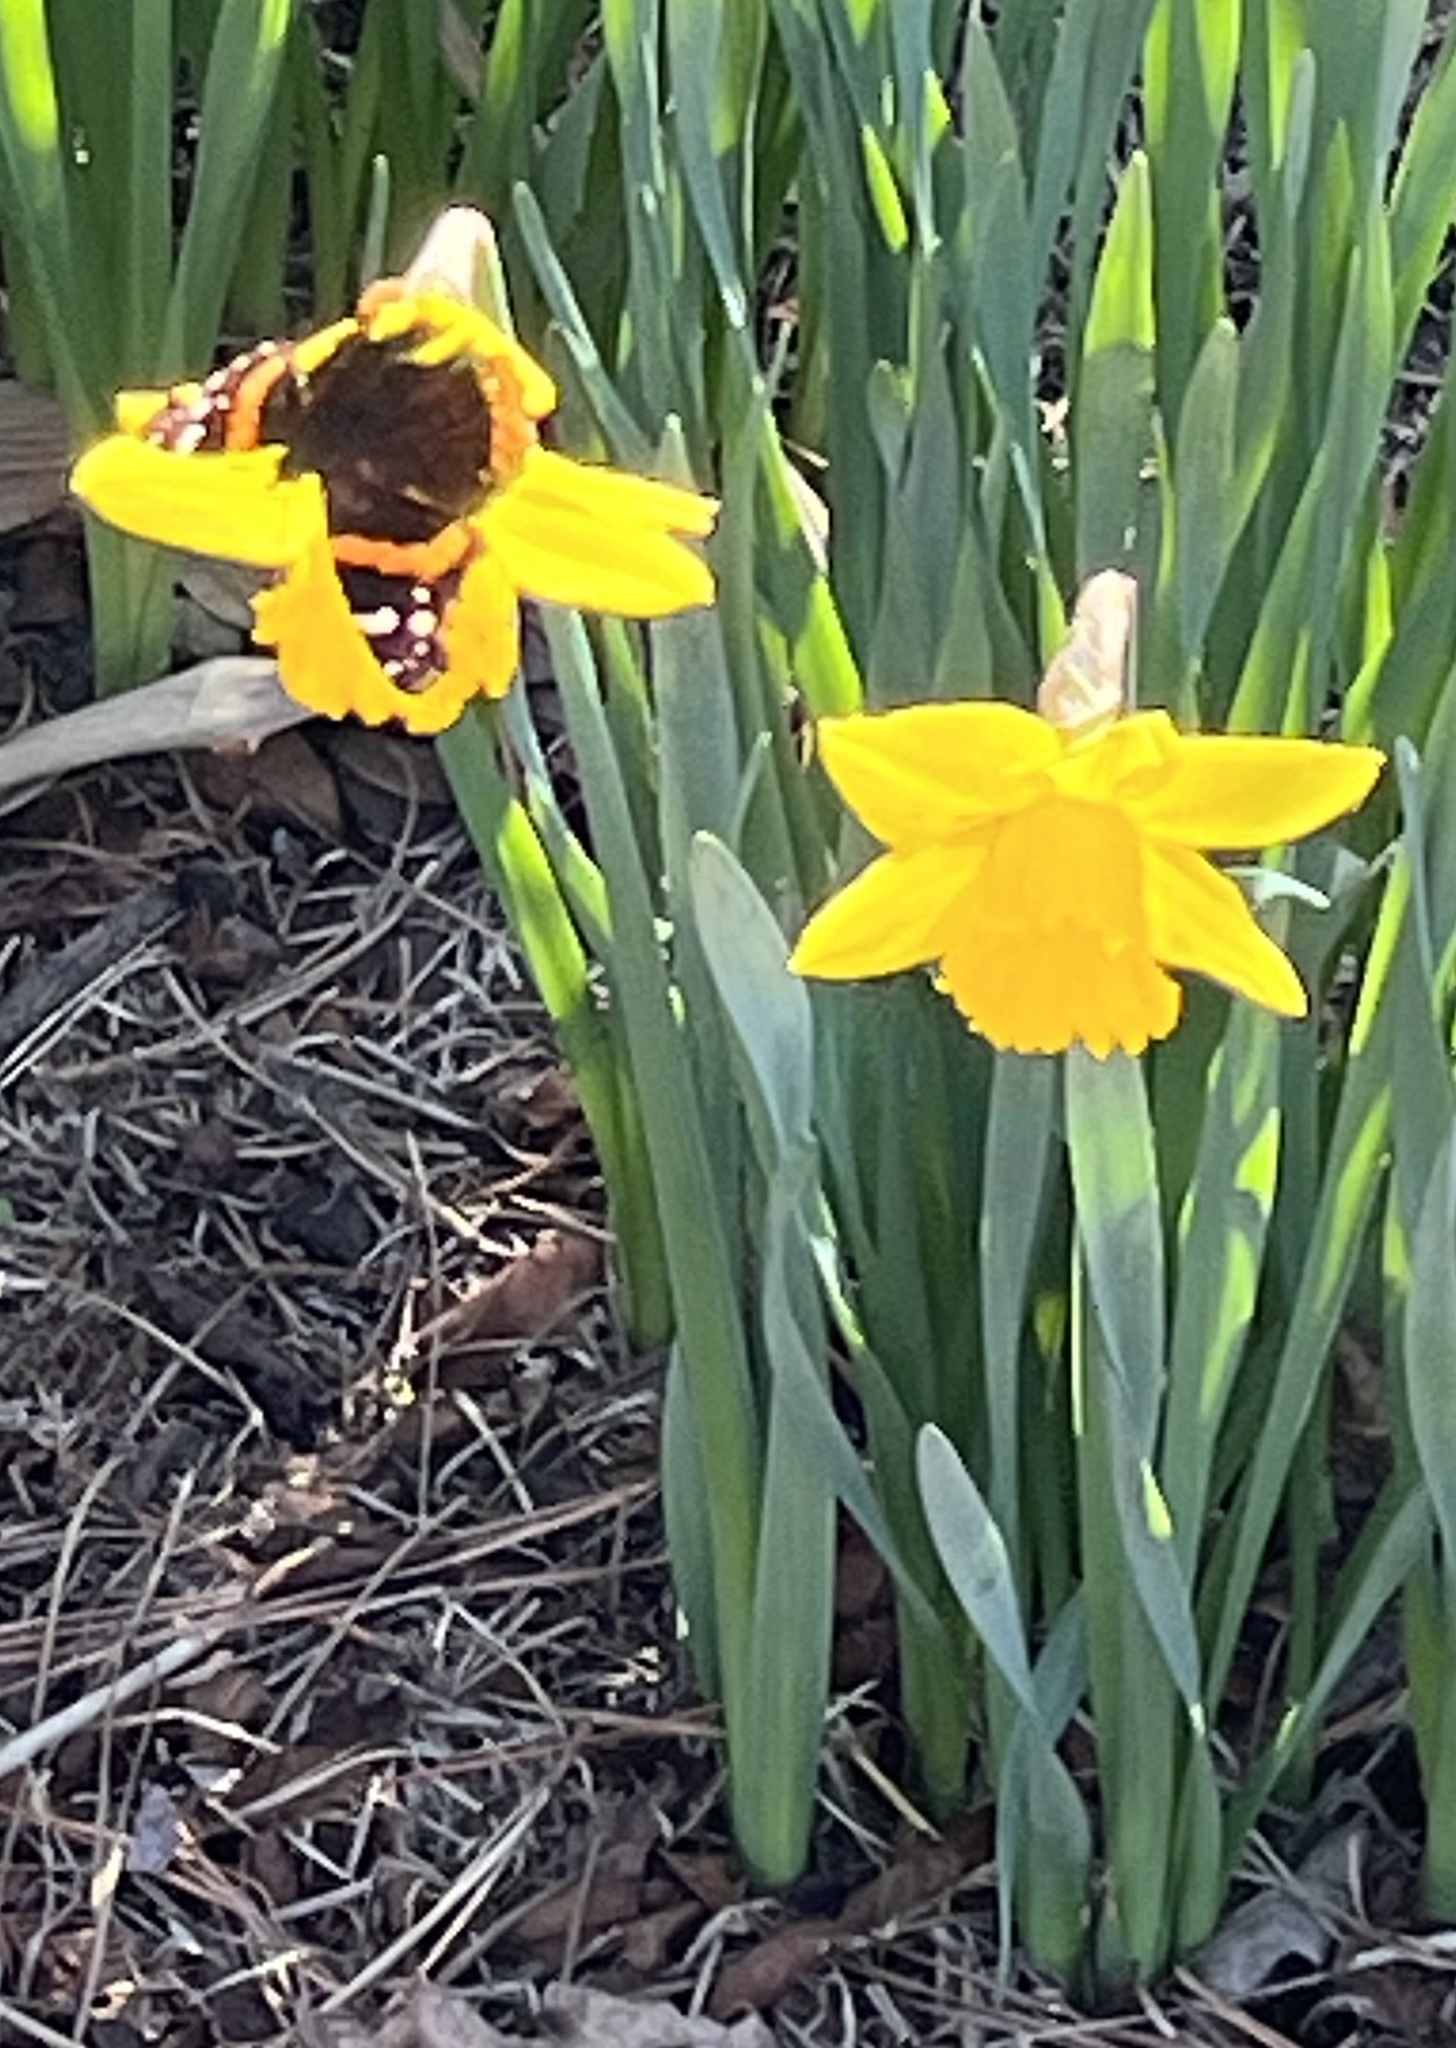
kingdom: Animalia
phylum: Arthropoda
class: Insecta
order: Lepidoptera
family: Nymphalidae
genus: Vanessa
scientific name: Vanessa atalanta
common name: Red admiral
